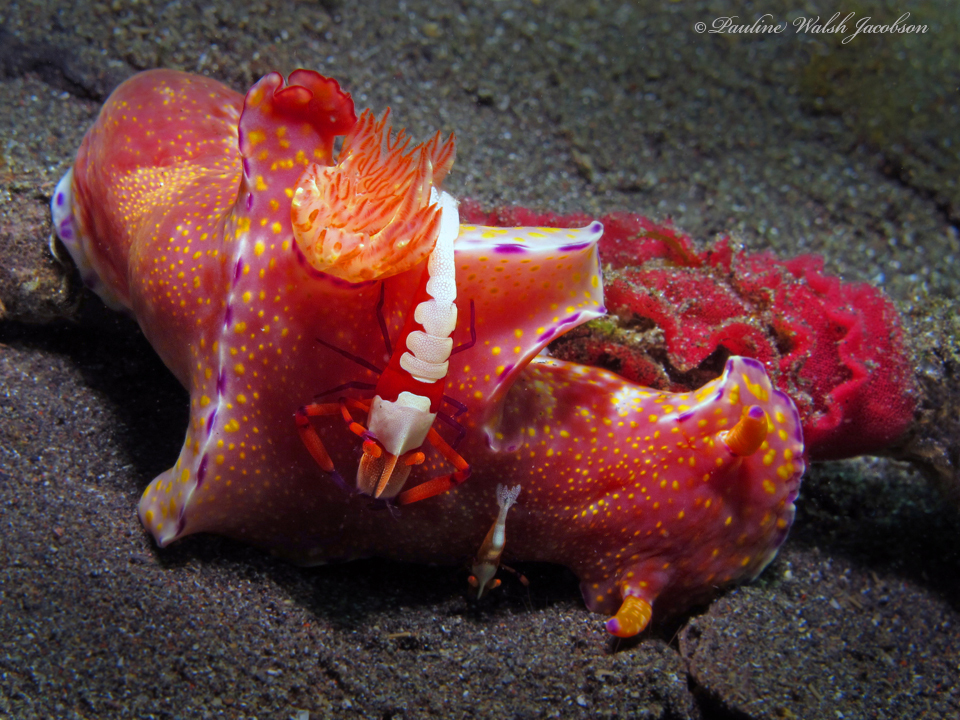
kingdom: Animalia
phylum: Mollusca
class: Gastropoda
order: Nudibranchia
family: Chromodorididae
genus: Ceratosoma
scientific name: Ceratosoma gracillimum
